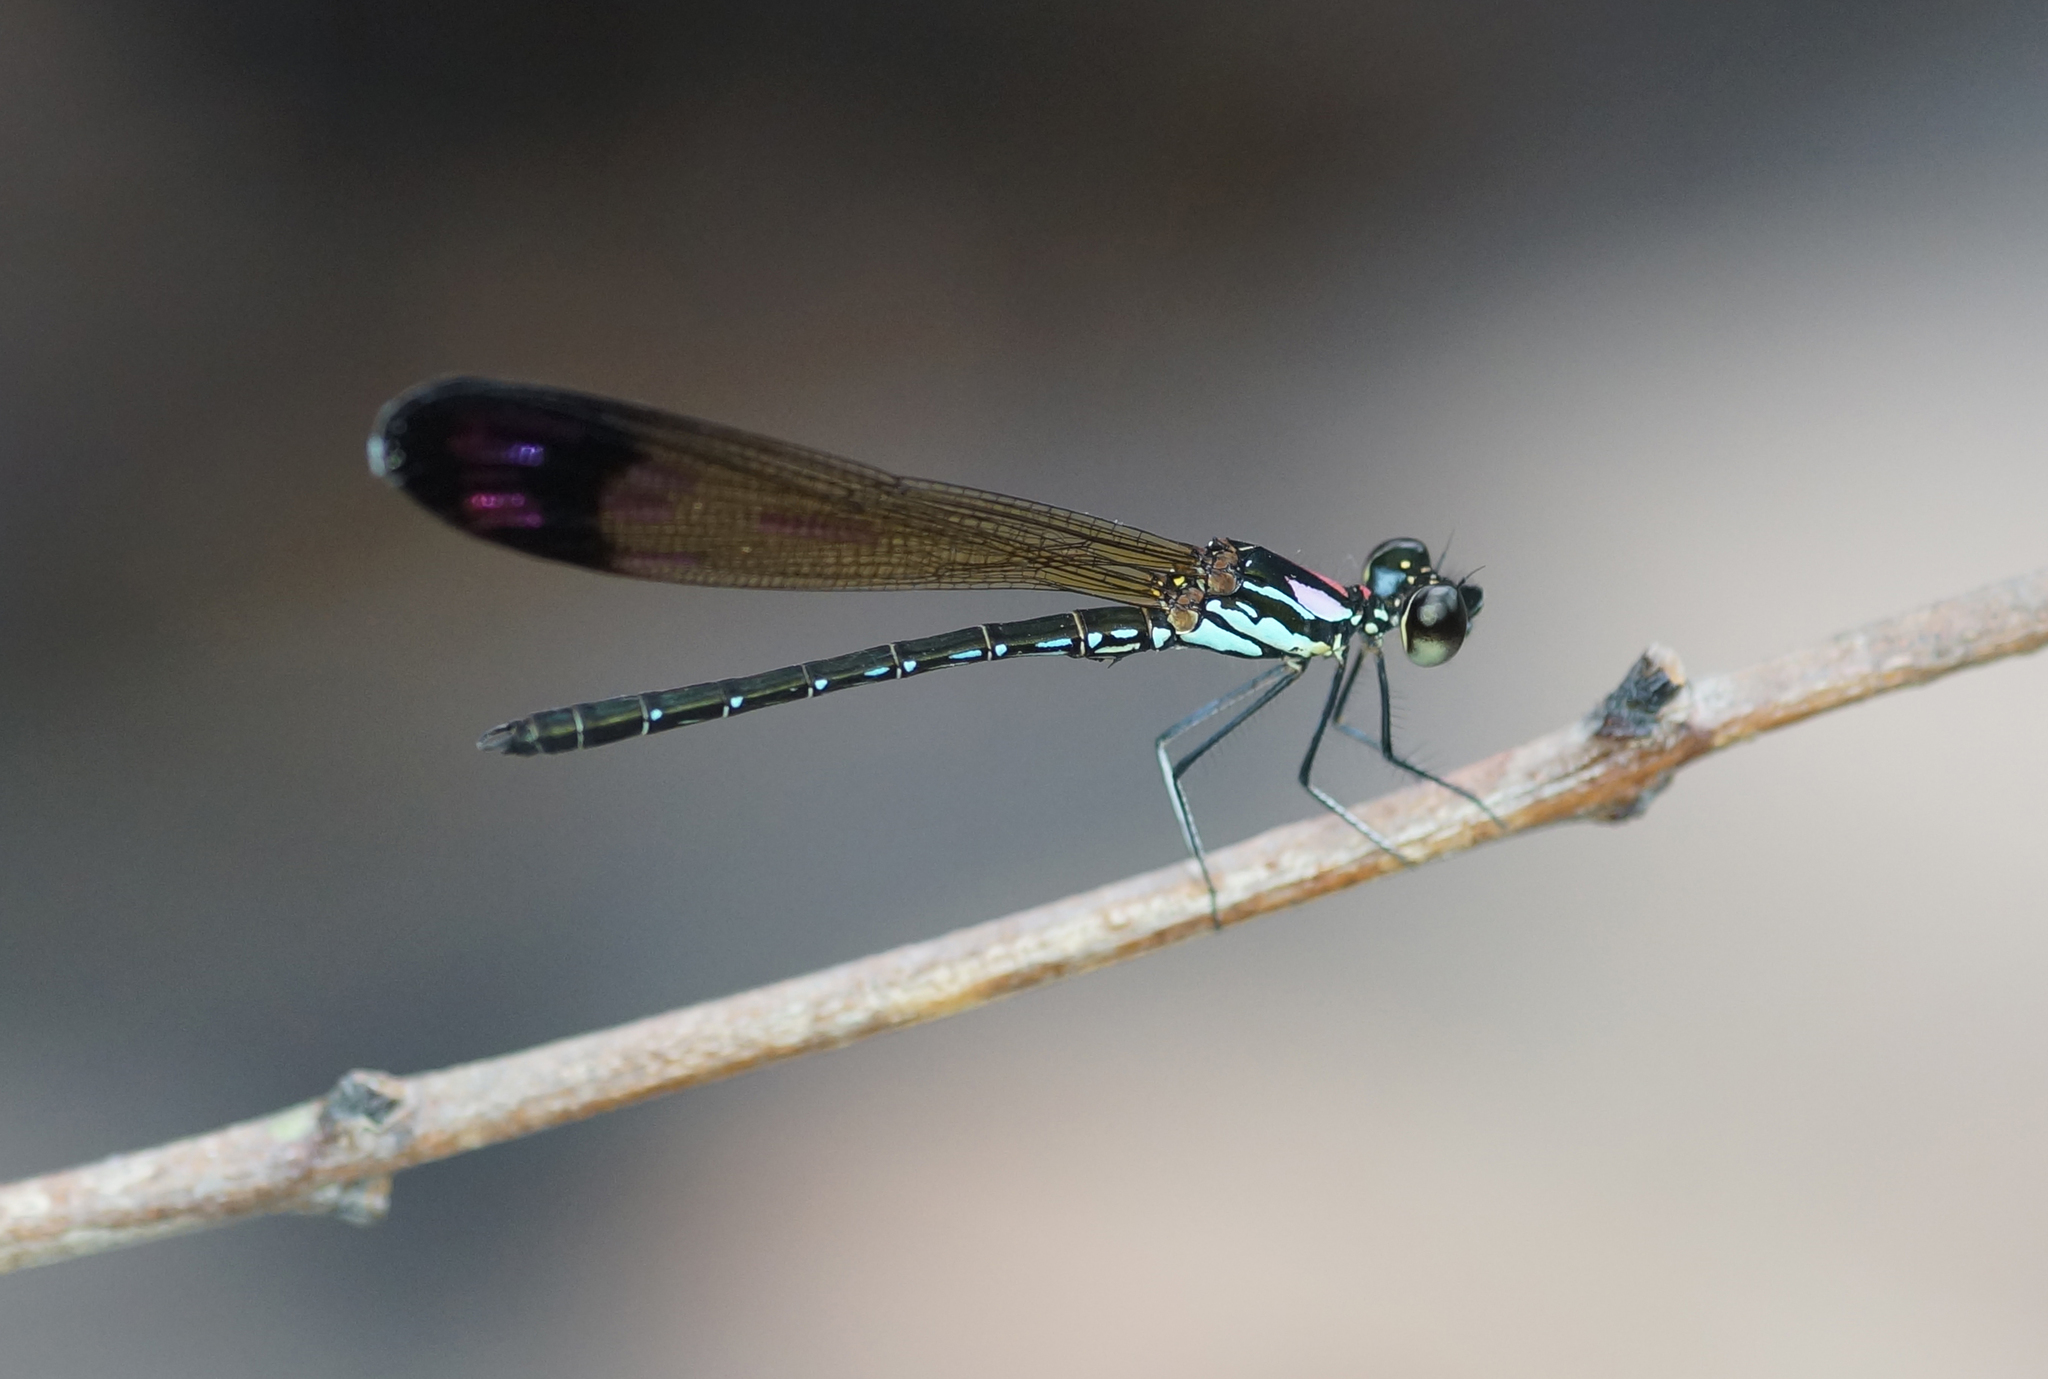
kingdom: Animalia
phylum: Arthropoda
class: Insecta
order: Odonata
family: Chlorocyphidae
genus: Heliocypha
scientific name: Heliocypha biforata
